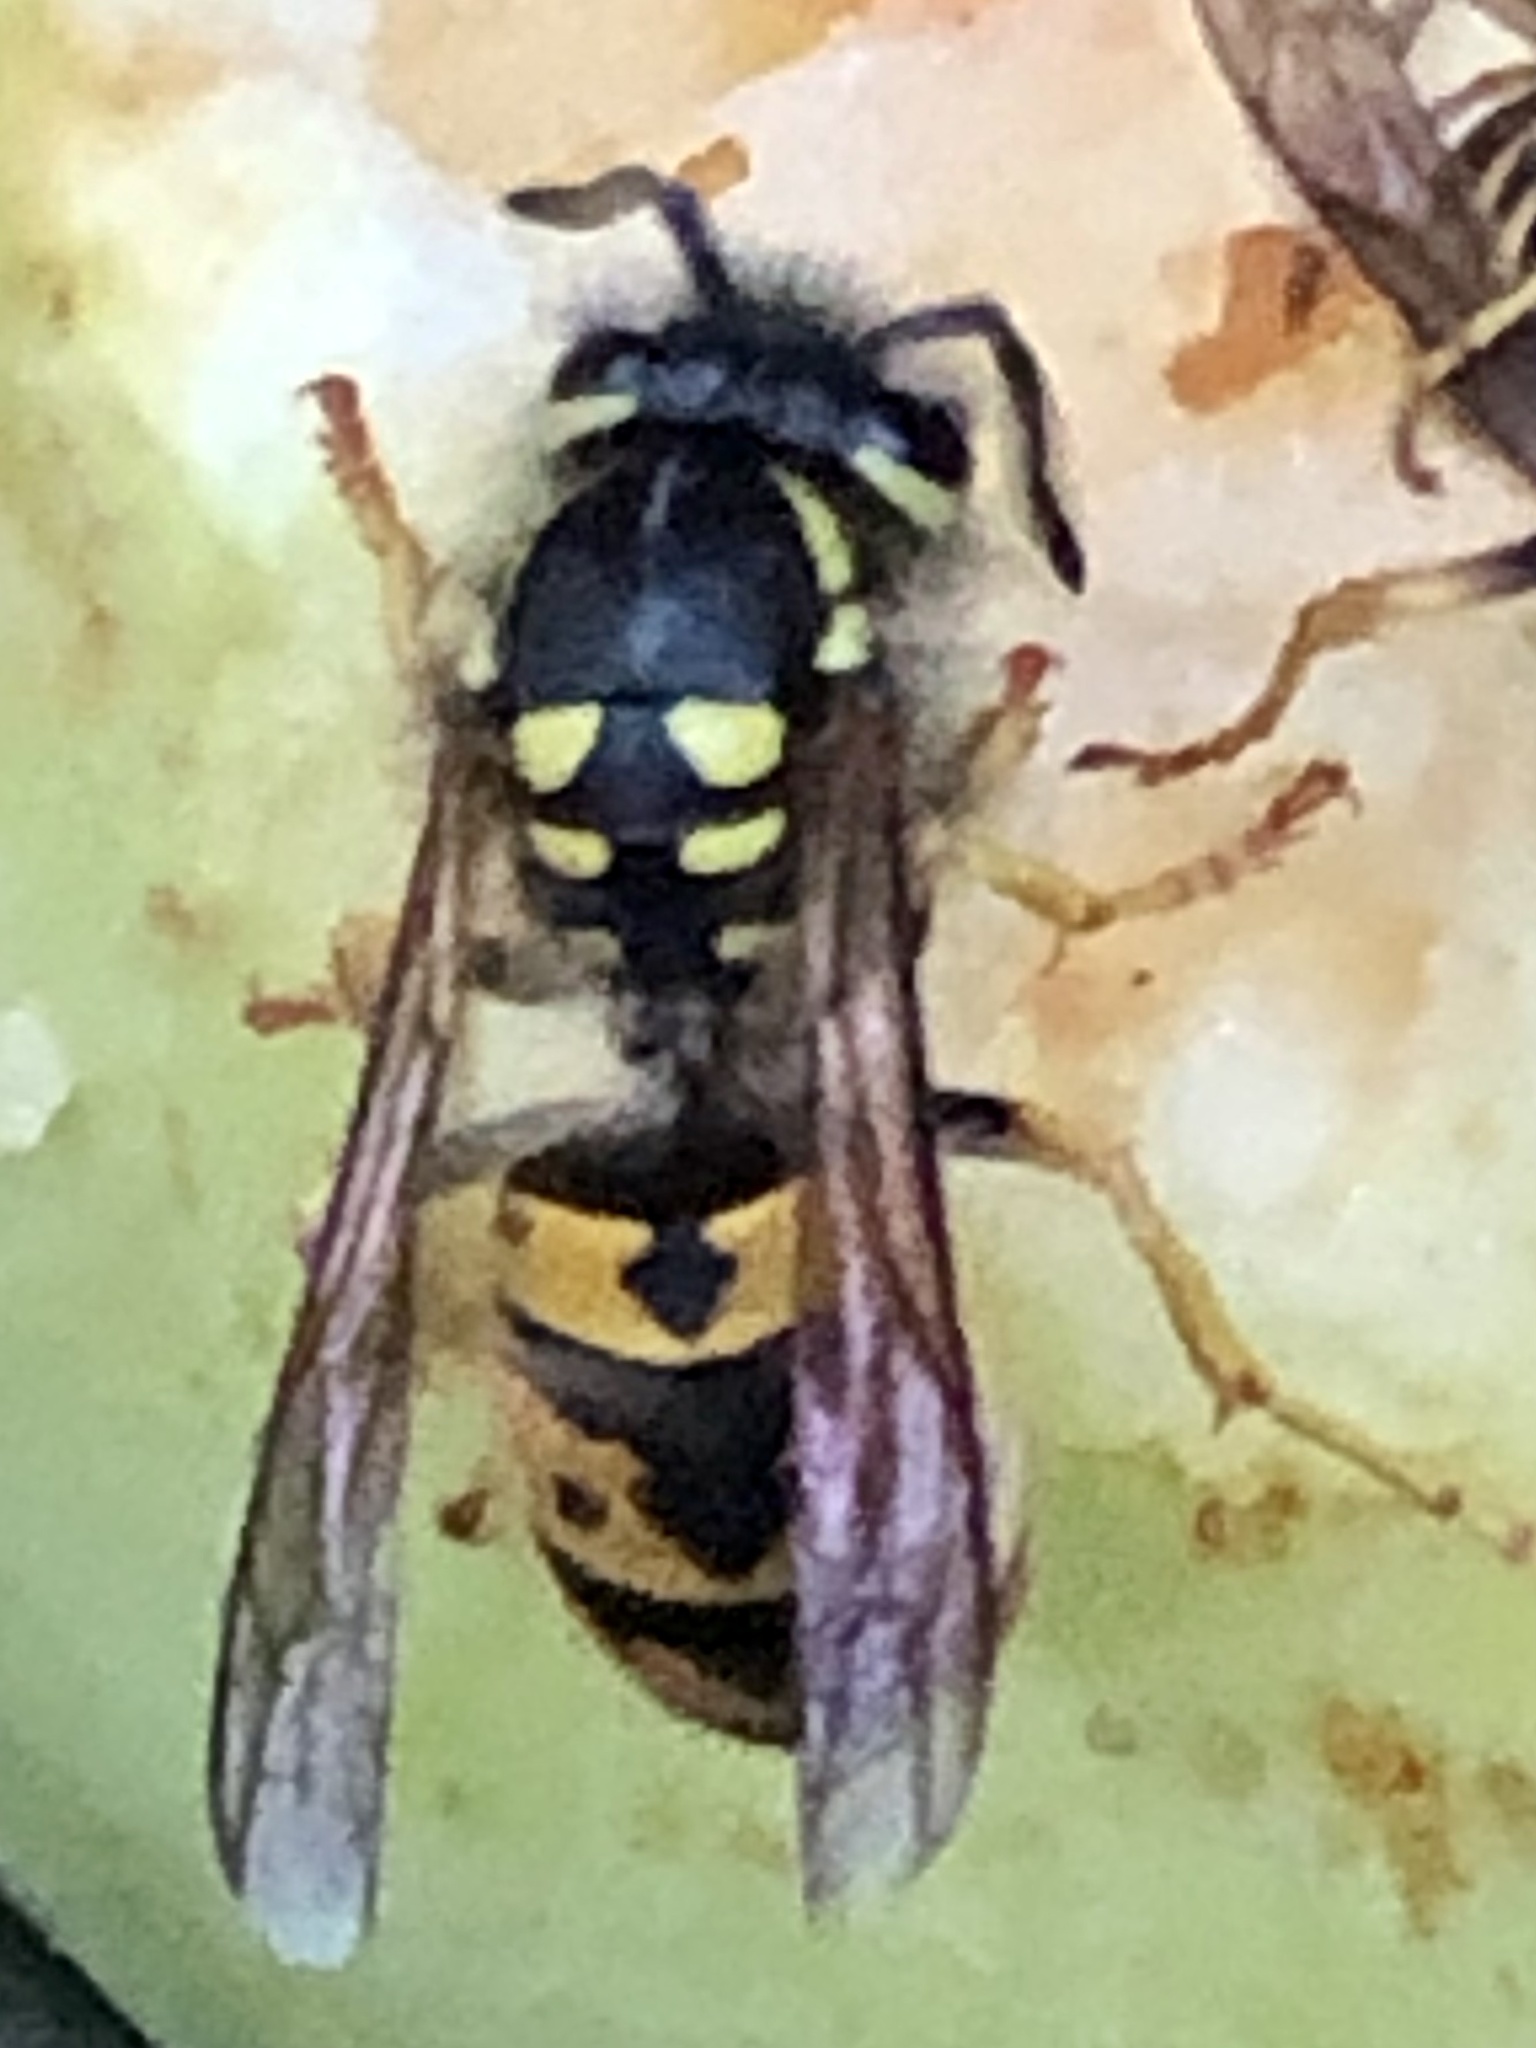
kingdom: Animalia
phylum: Arthropoda
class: Insecta
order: Hymenoptera
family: Vespidae
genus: Vespula
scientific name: Vespula germanica
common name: German wasp
